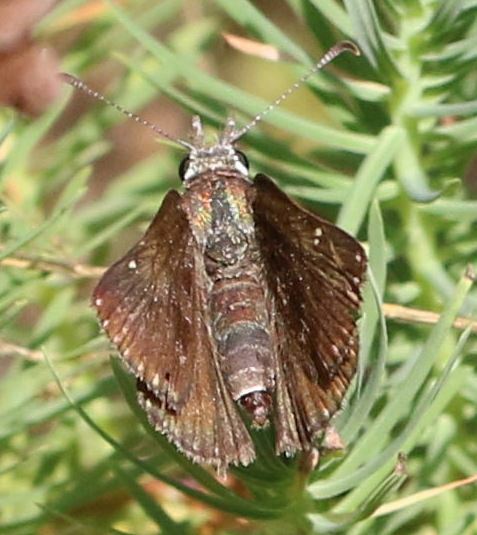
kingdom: Animalia
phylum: Arthropoda
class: Insecta
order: Lepidoptera
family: Hesperiidae
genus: Erynnis
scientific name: Erynnis tages
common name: Dingy skipper
